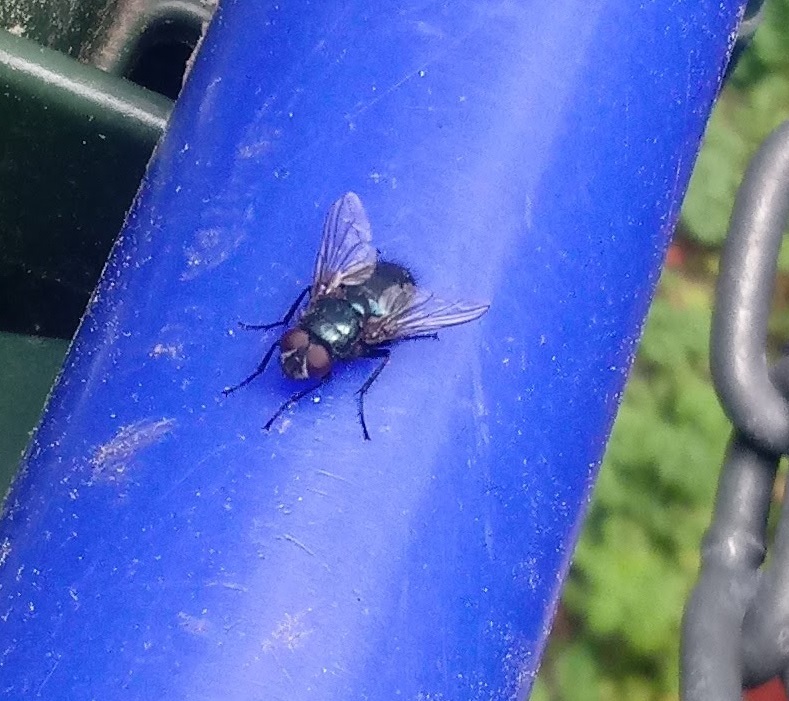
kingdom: Animalia
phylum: Arthropoda
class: Insecta
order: Diptera
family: Calliphoridae
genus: Protophormia
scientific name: Protophormia terraenovae
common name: Blackbottle
